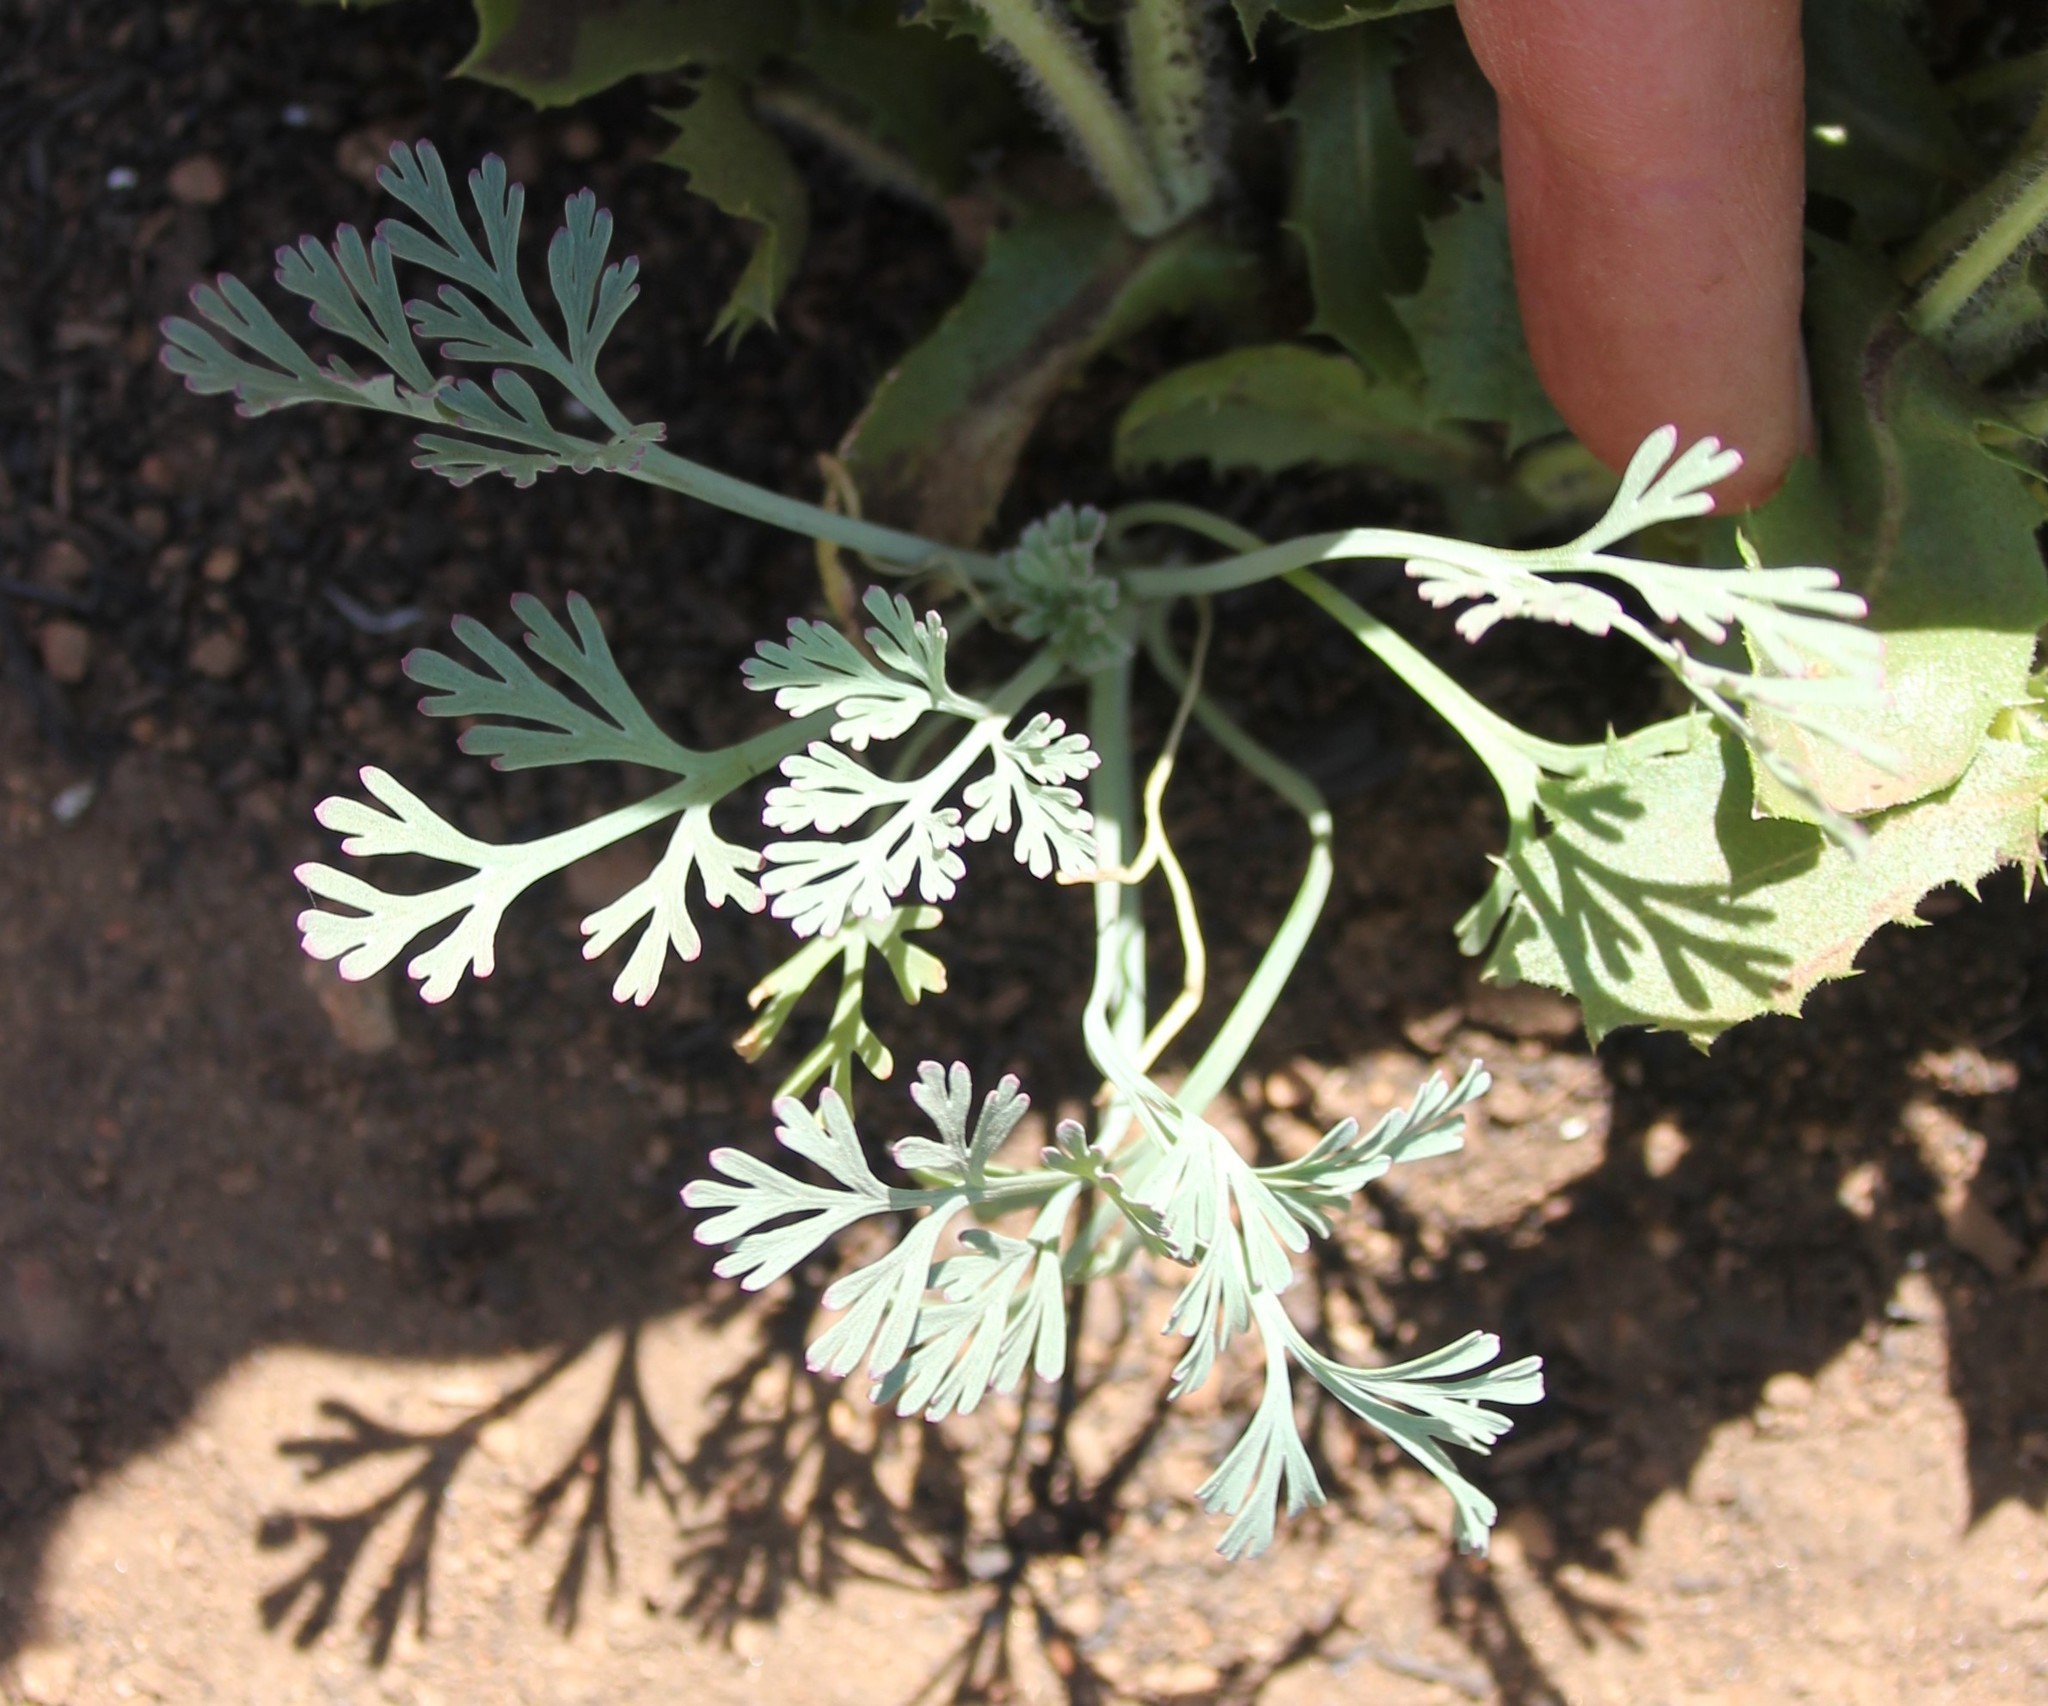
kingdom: Plantae
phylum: Tracheophyta
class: Magnoliopsida
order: Ranunculales
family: Papaveraceae
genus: Eschscholzia
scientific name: Eschscholzia californica
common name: California poppy
